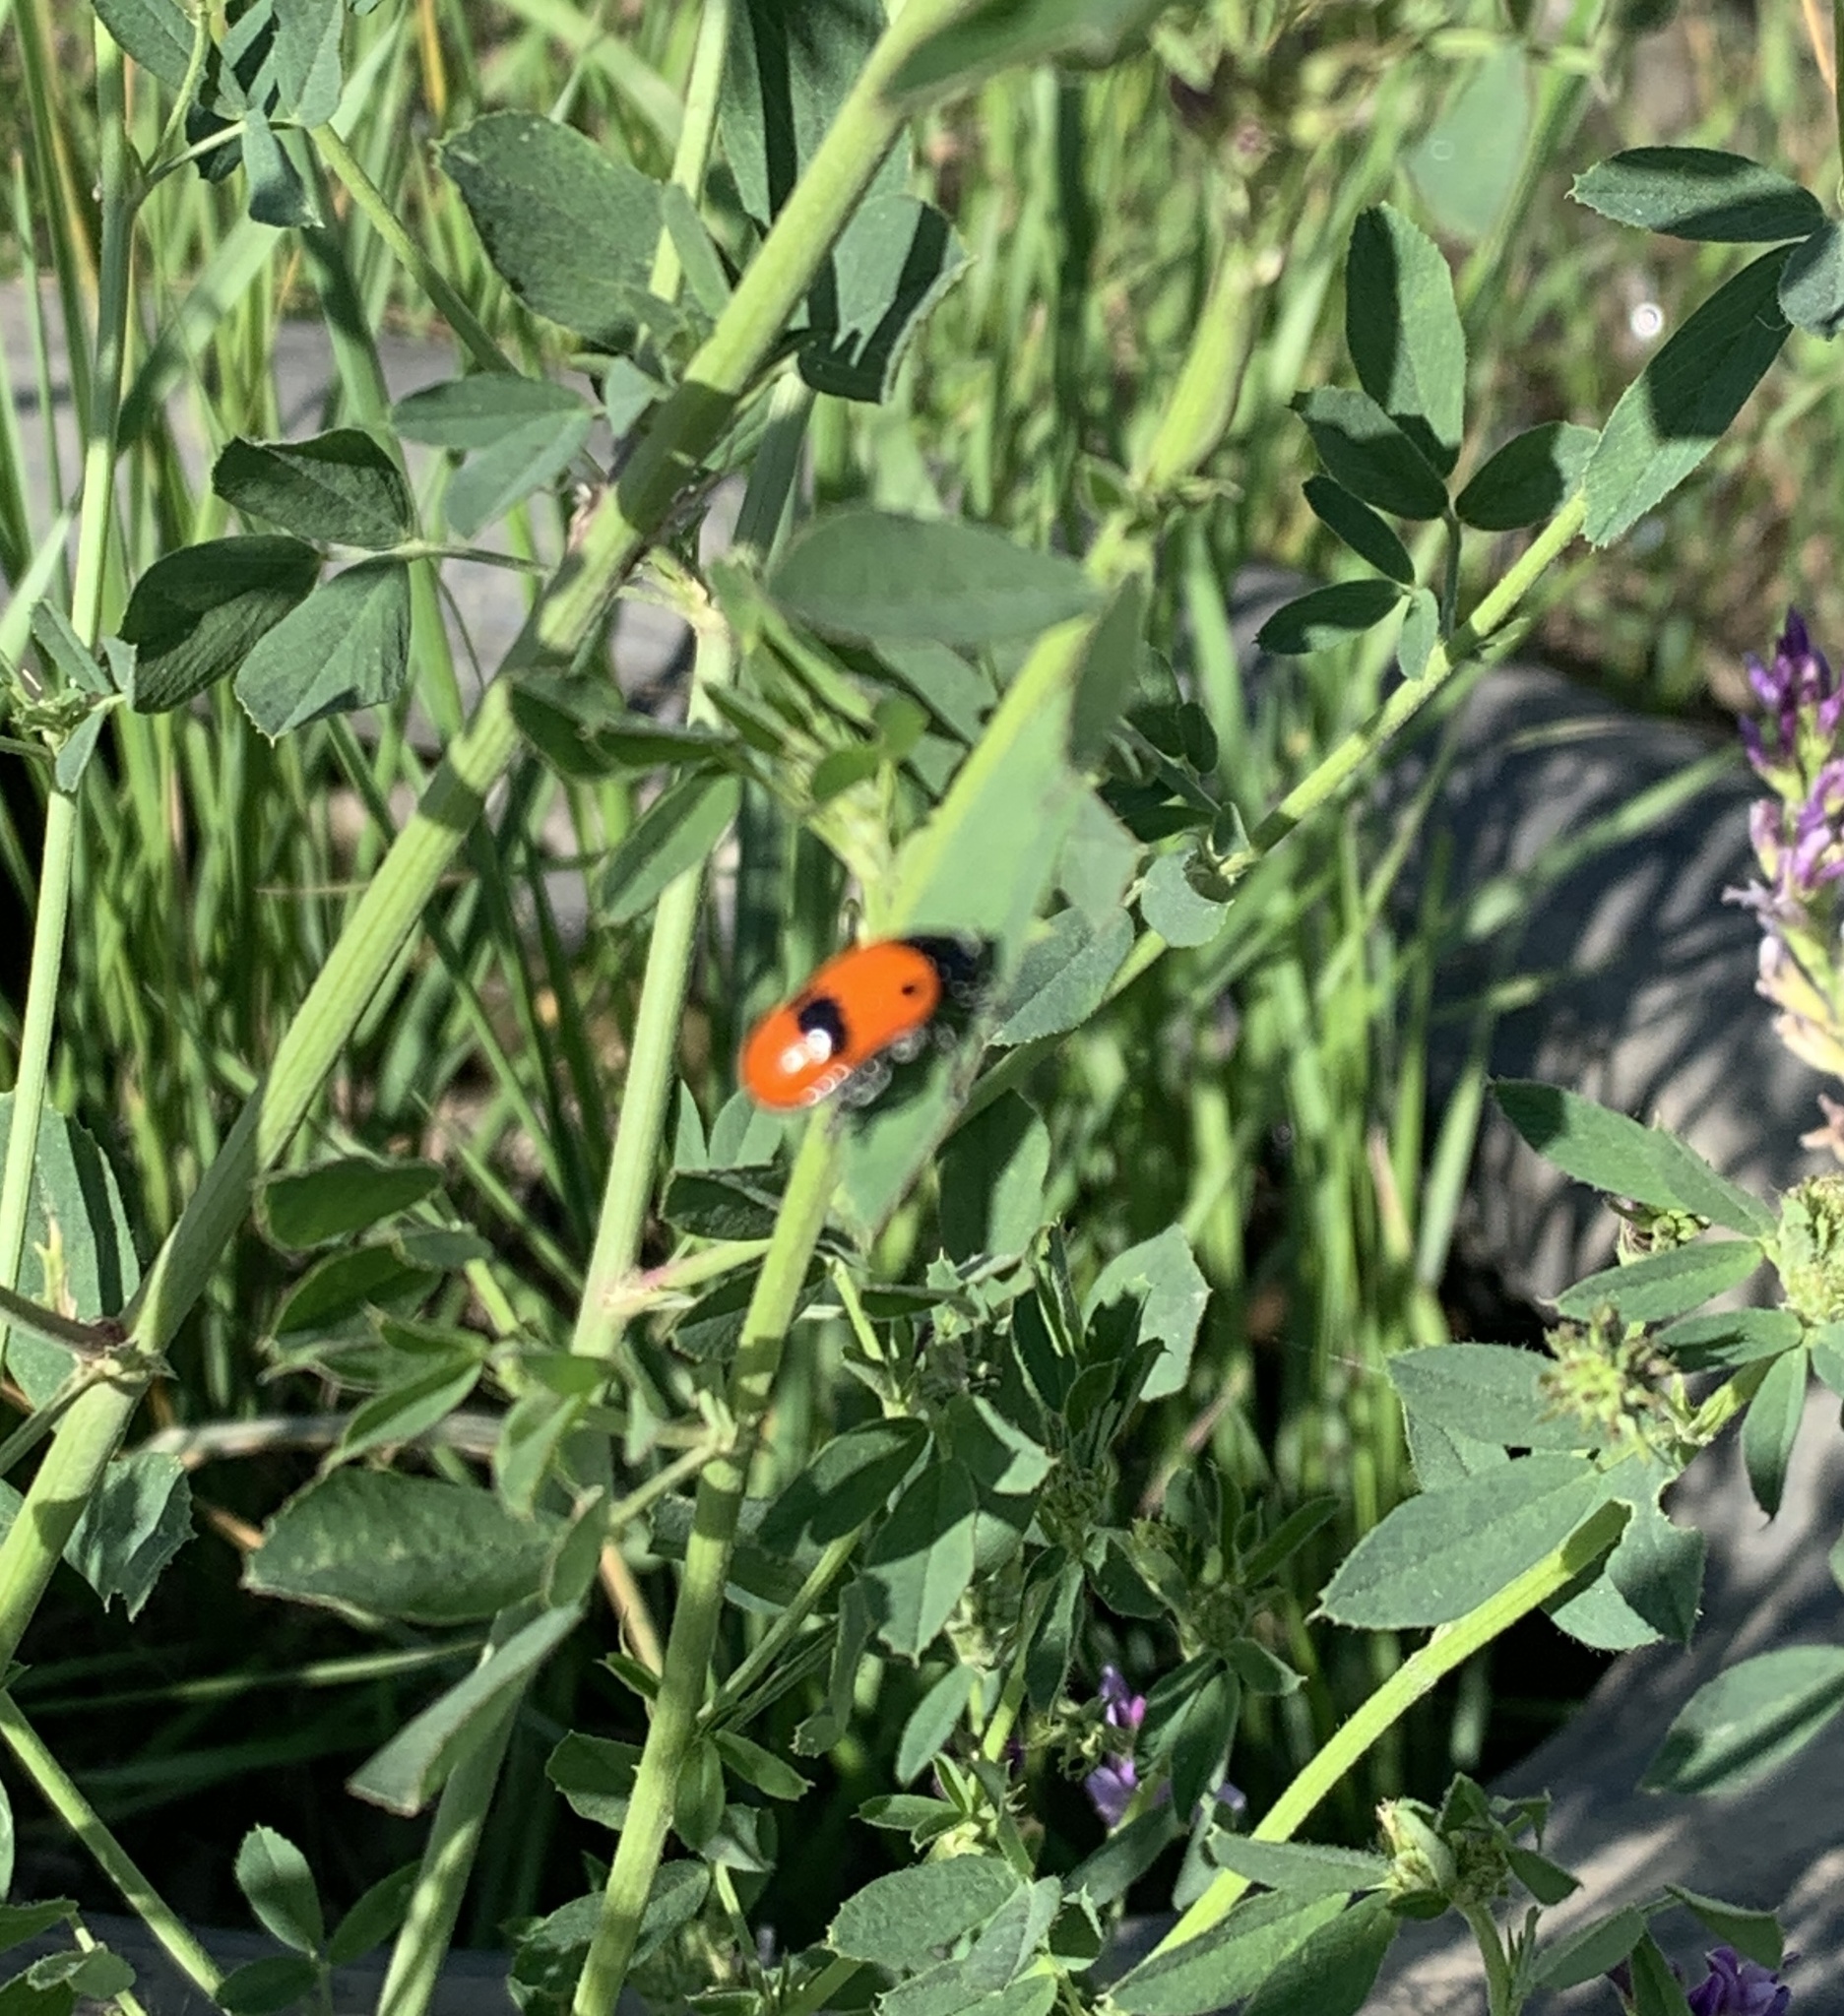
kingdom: Animalia
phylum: Arthropoda
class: Insecta
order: Coleoptera
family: Chrysomelidae
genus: Clytra
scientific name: Clytra laeviuscula
